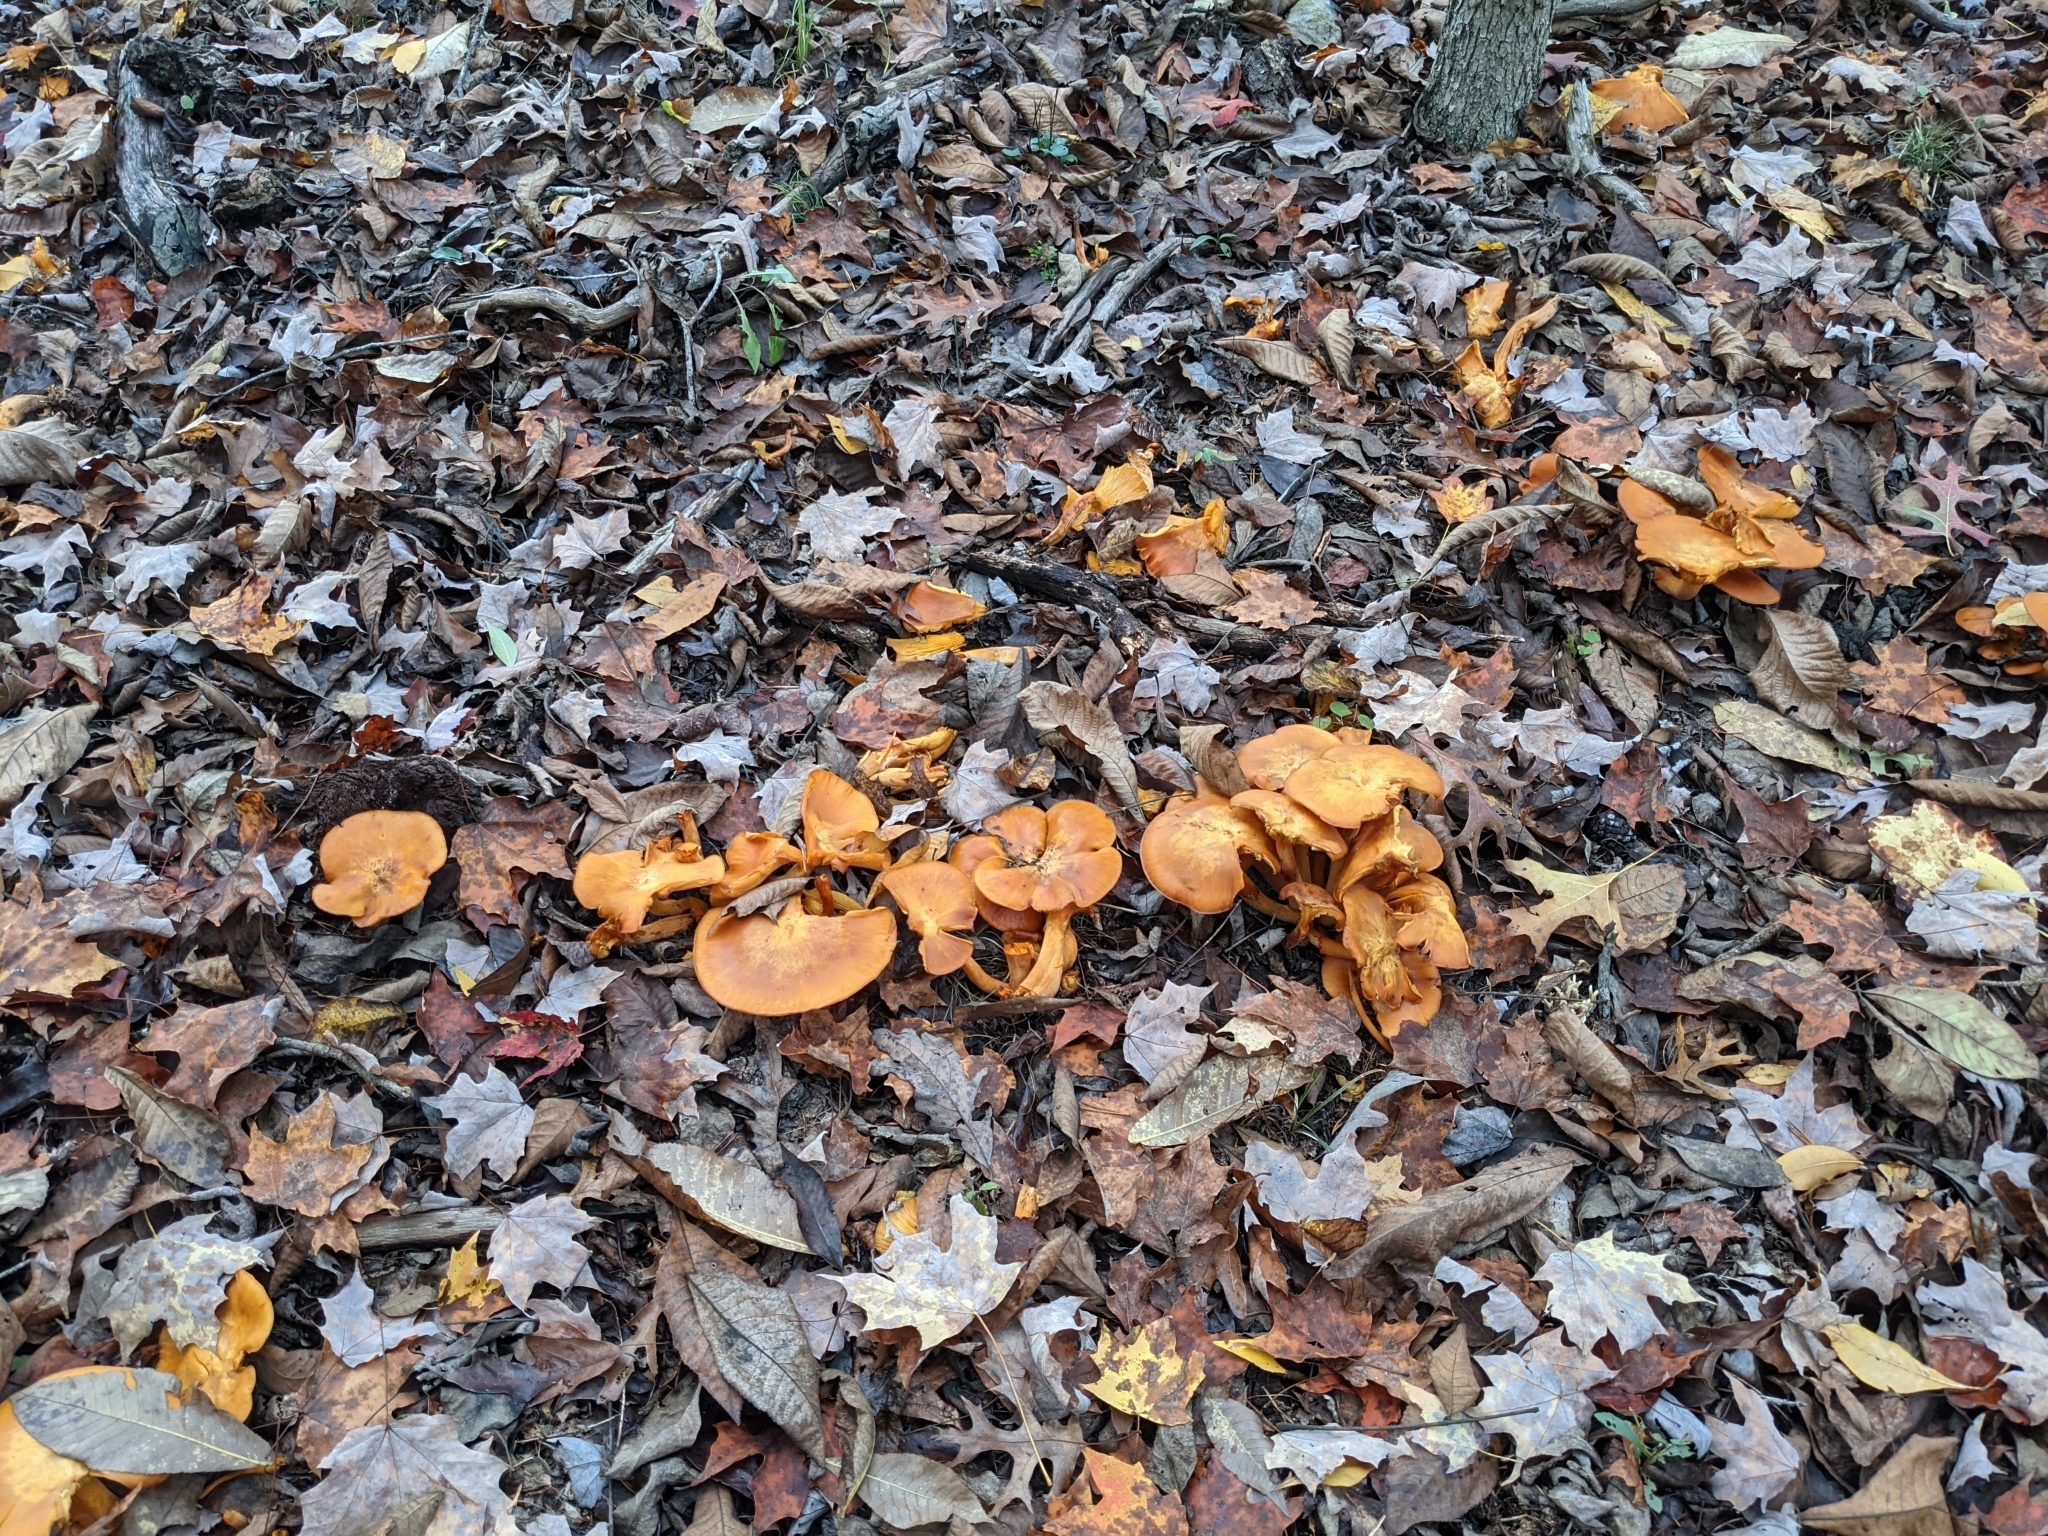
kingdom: Fungi
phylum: Basidiomycota
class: Agaricomycetes
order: Agaricales
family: Omphalotaceae
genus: Omphalotus
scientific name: Omphalotus illudens
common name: Jack o lantern
